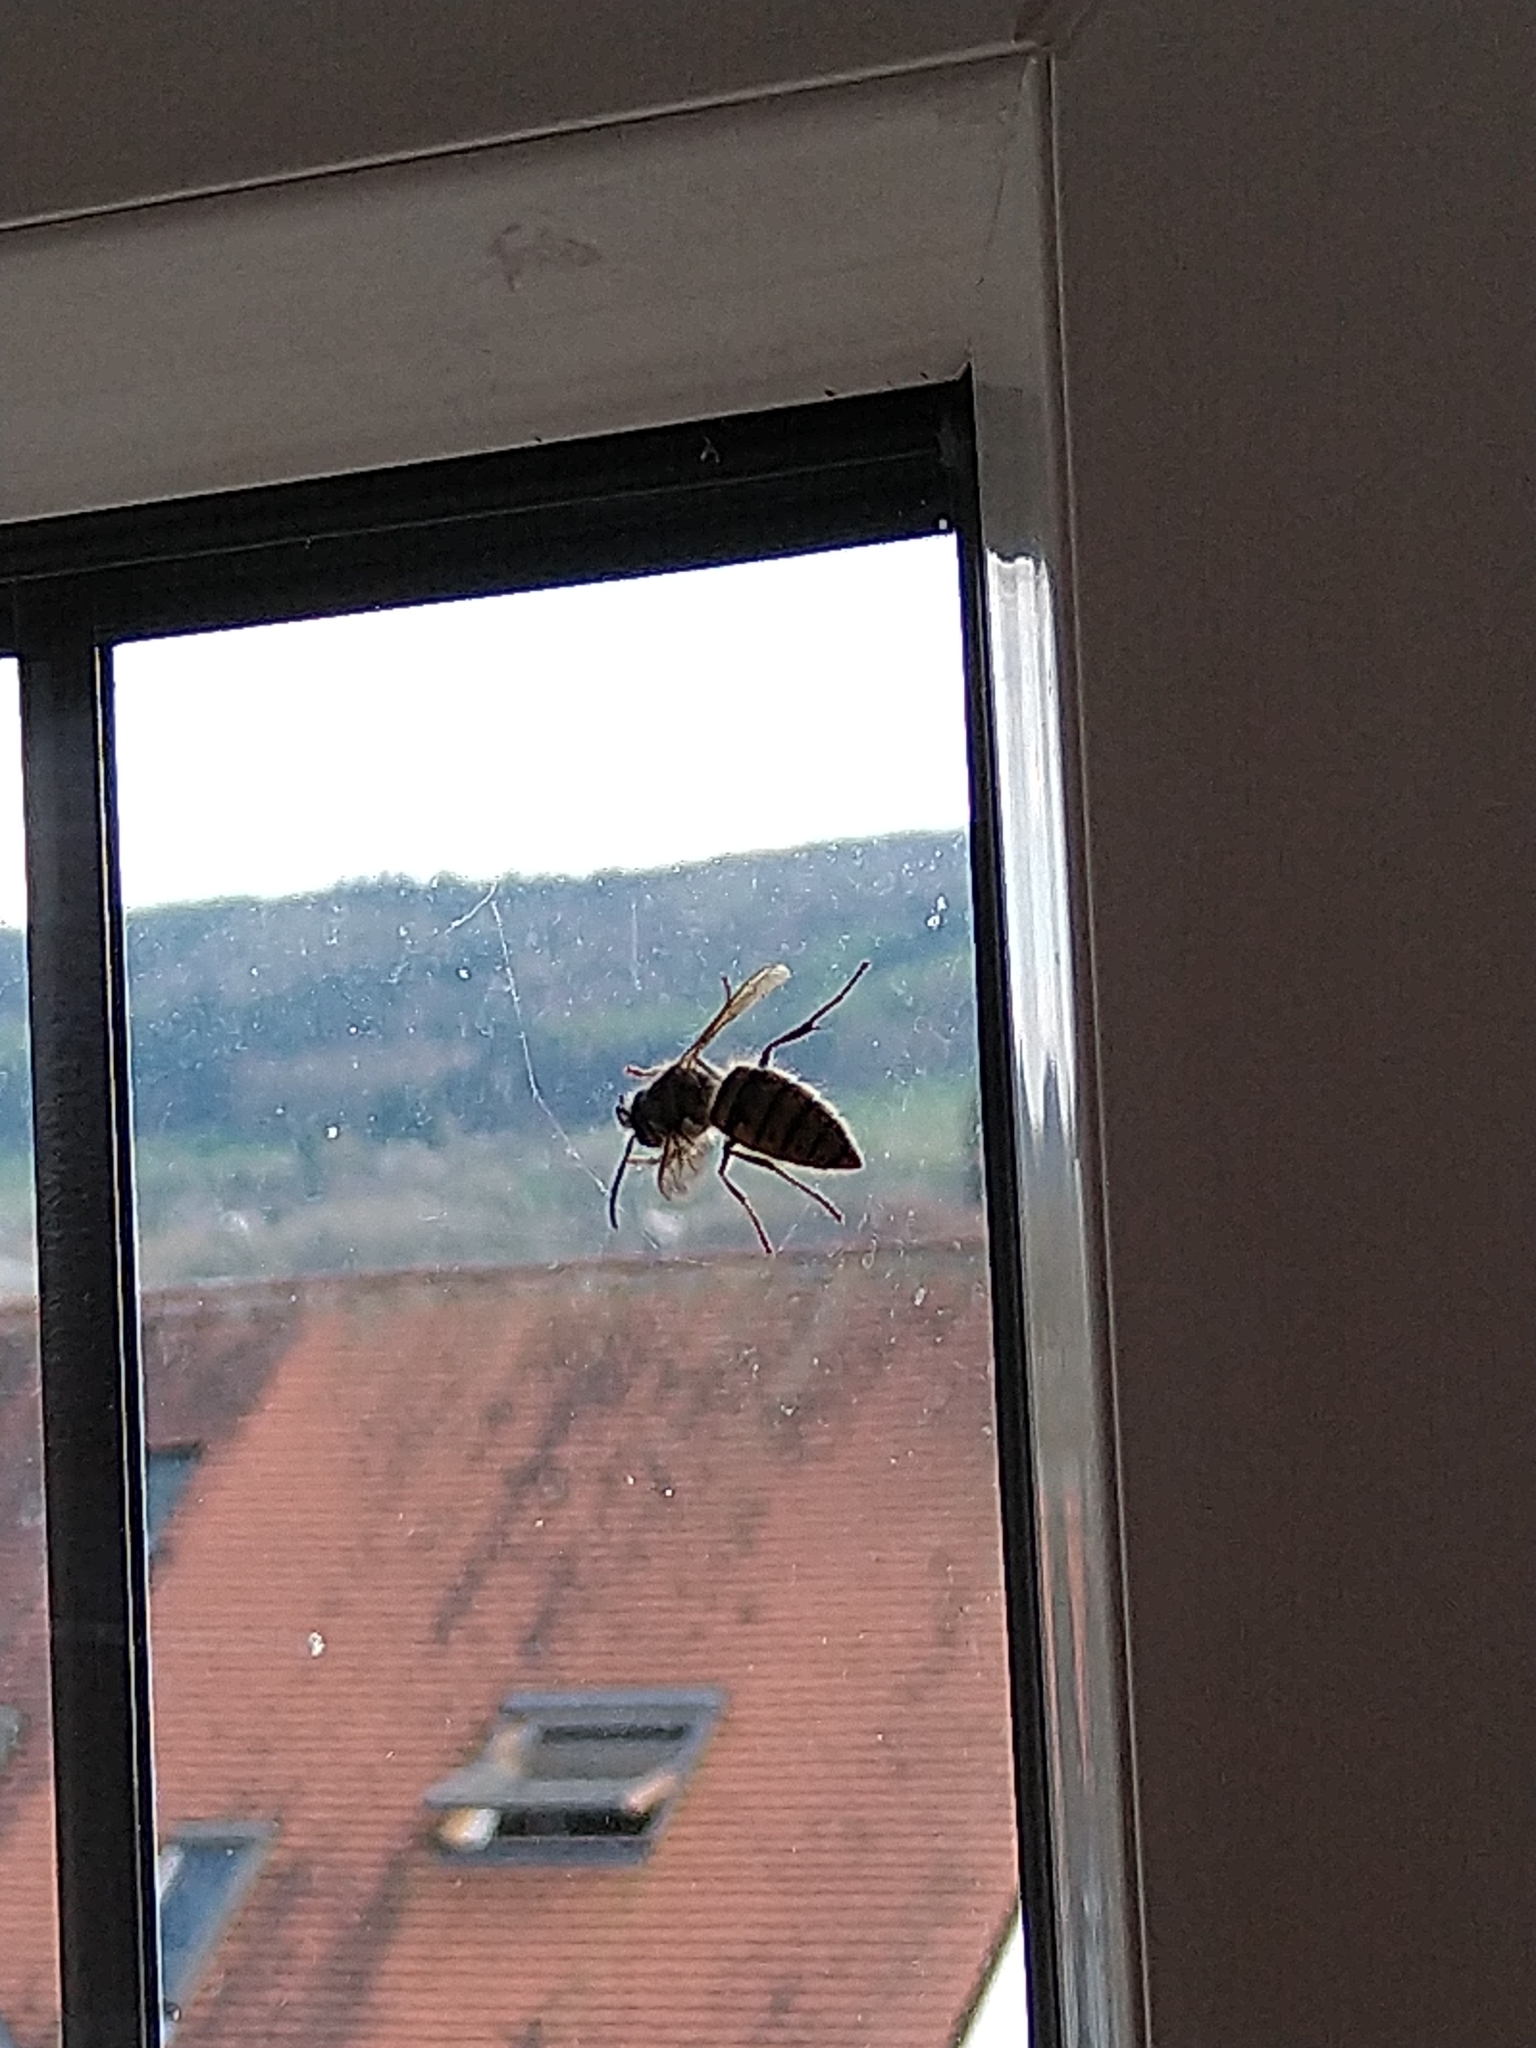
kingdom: Animalia
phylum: Arthropoda
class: Insecta
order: Hymenoptera
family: Vespidae
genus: Vespula
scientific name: Vespula vulgaris
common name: Common wasp
